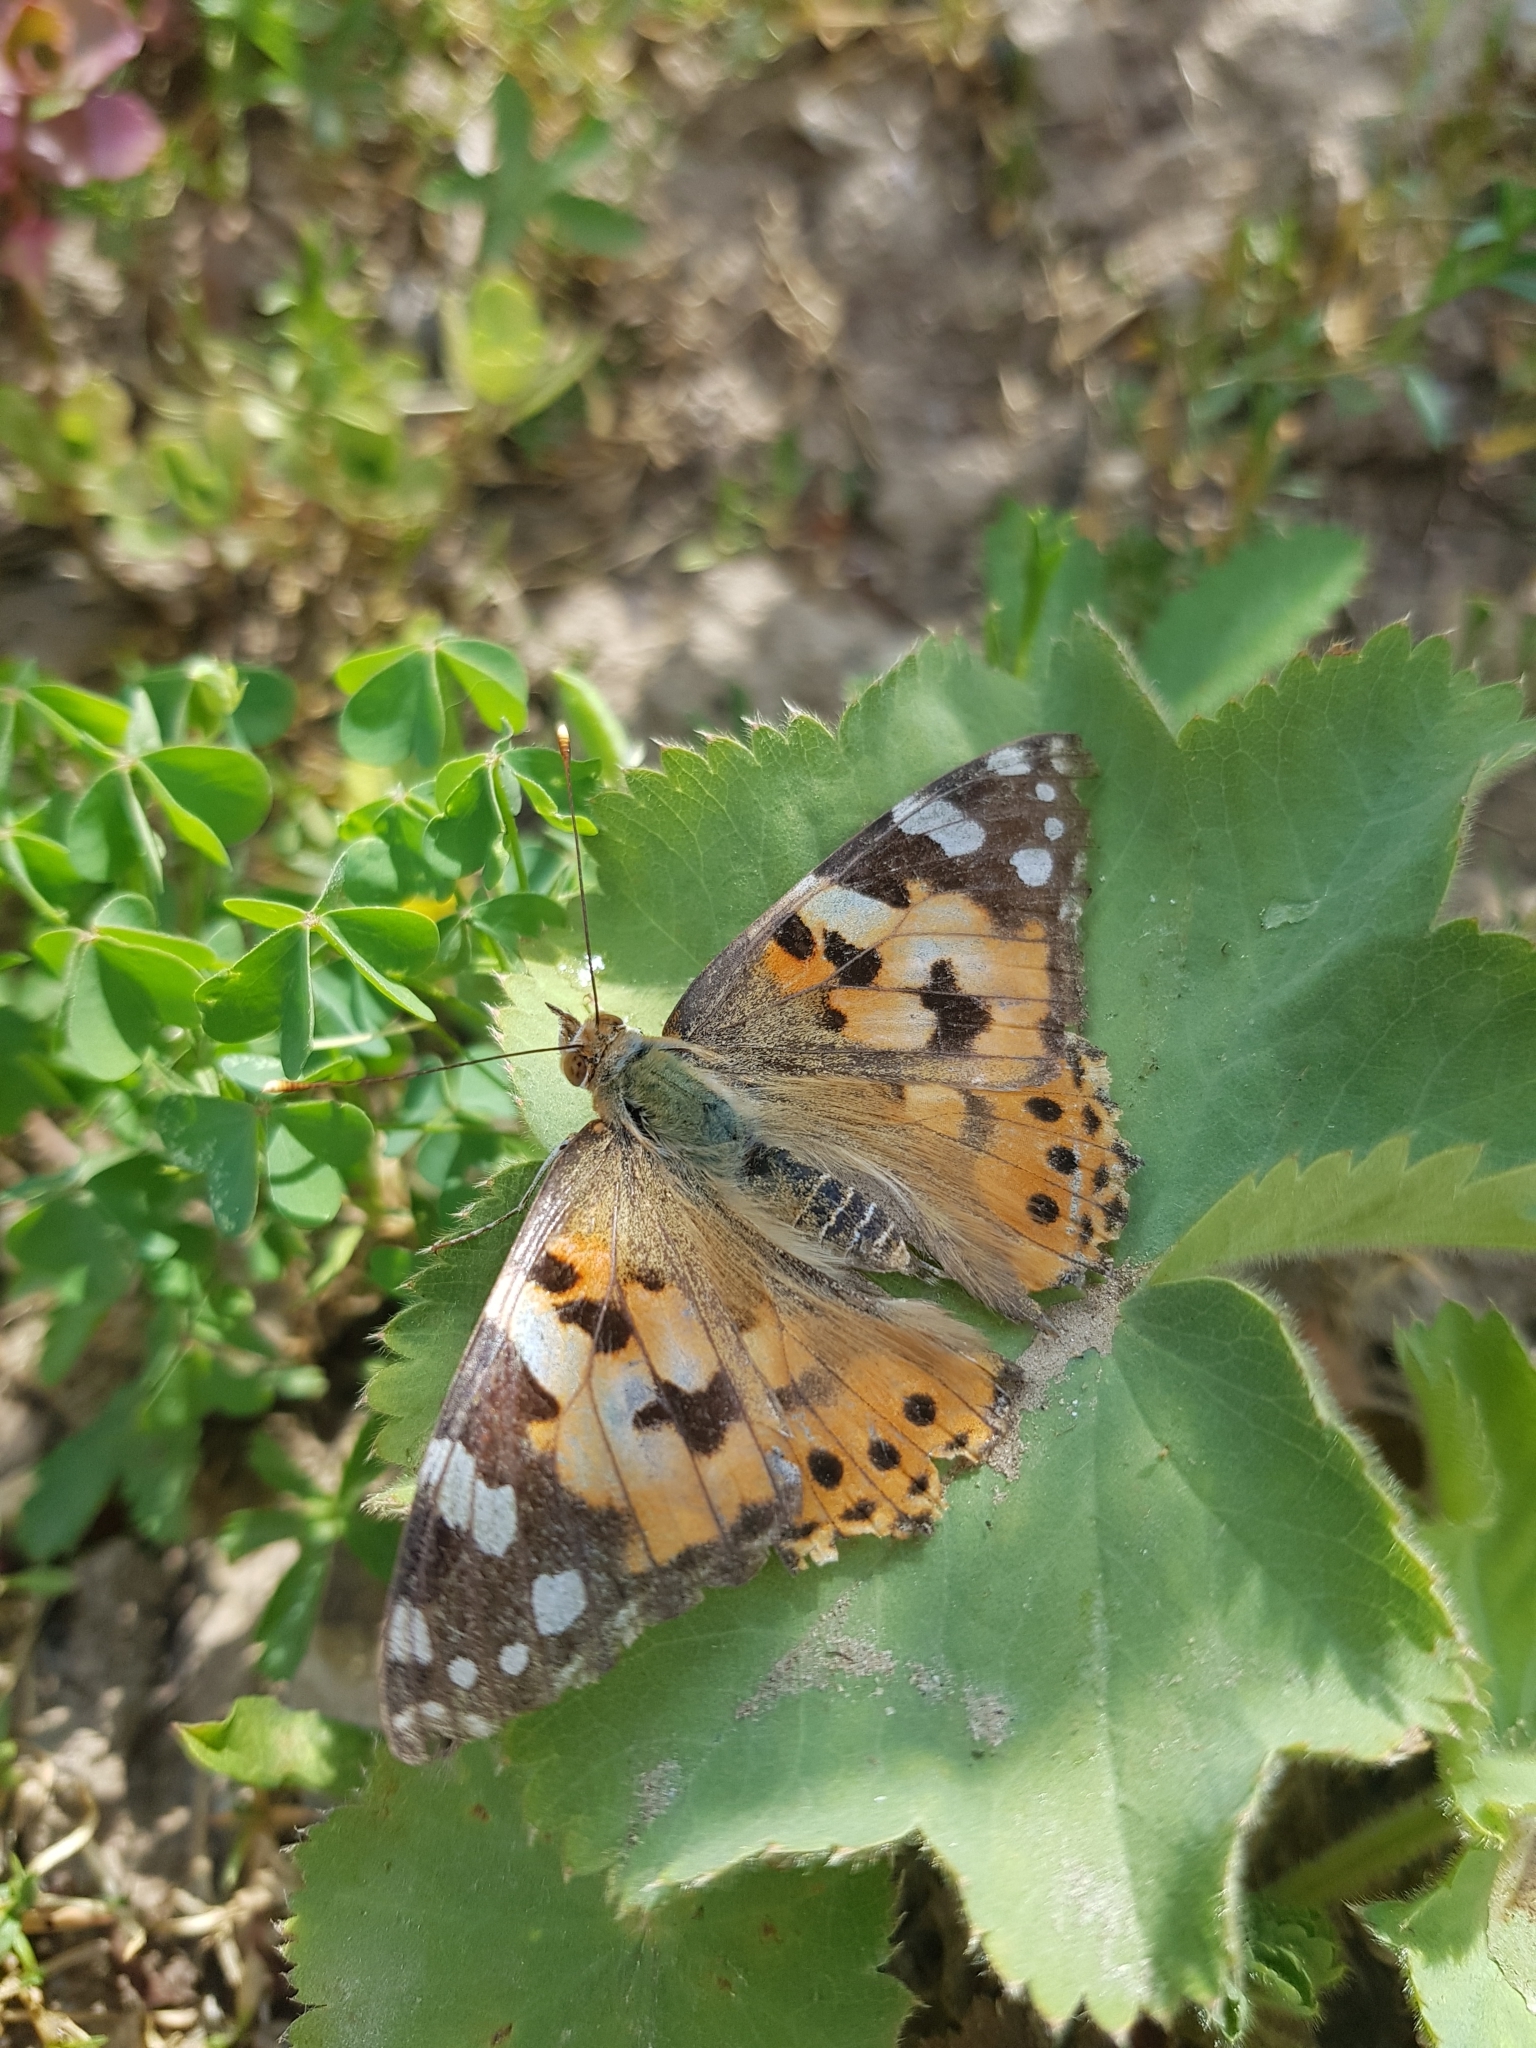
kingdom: Animalia
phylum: Arthropoda
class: Insecta
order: Lepidoptera
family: Nymphalidae
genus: Vanessa
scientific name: Vanessa cardui
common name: Painted lady
